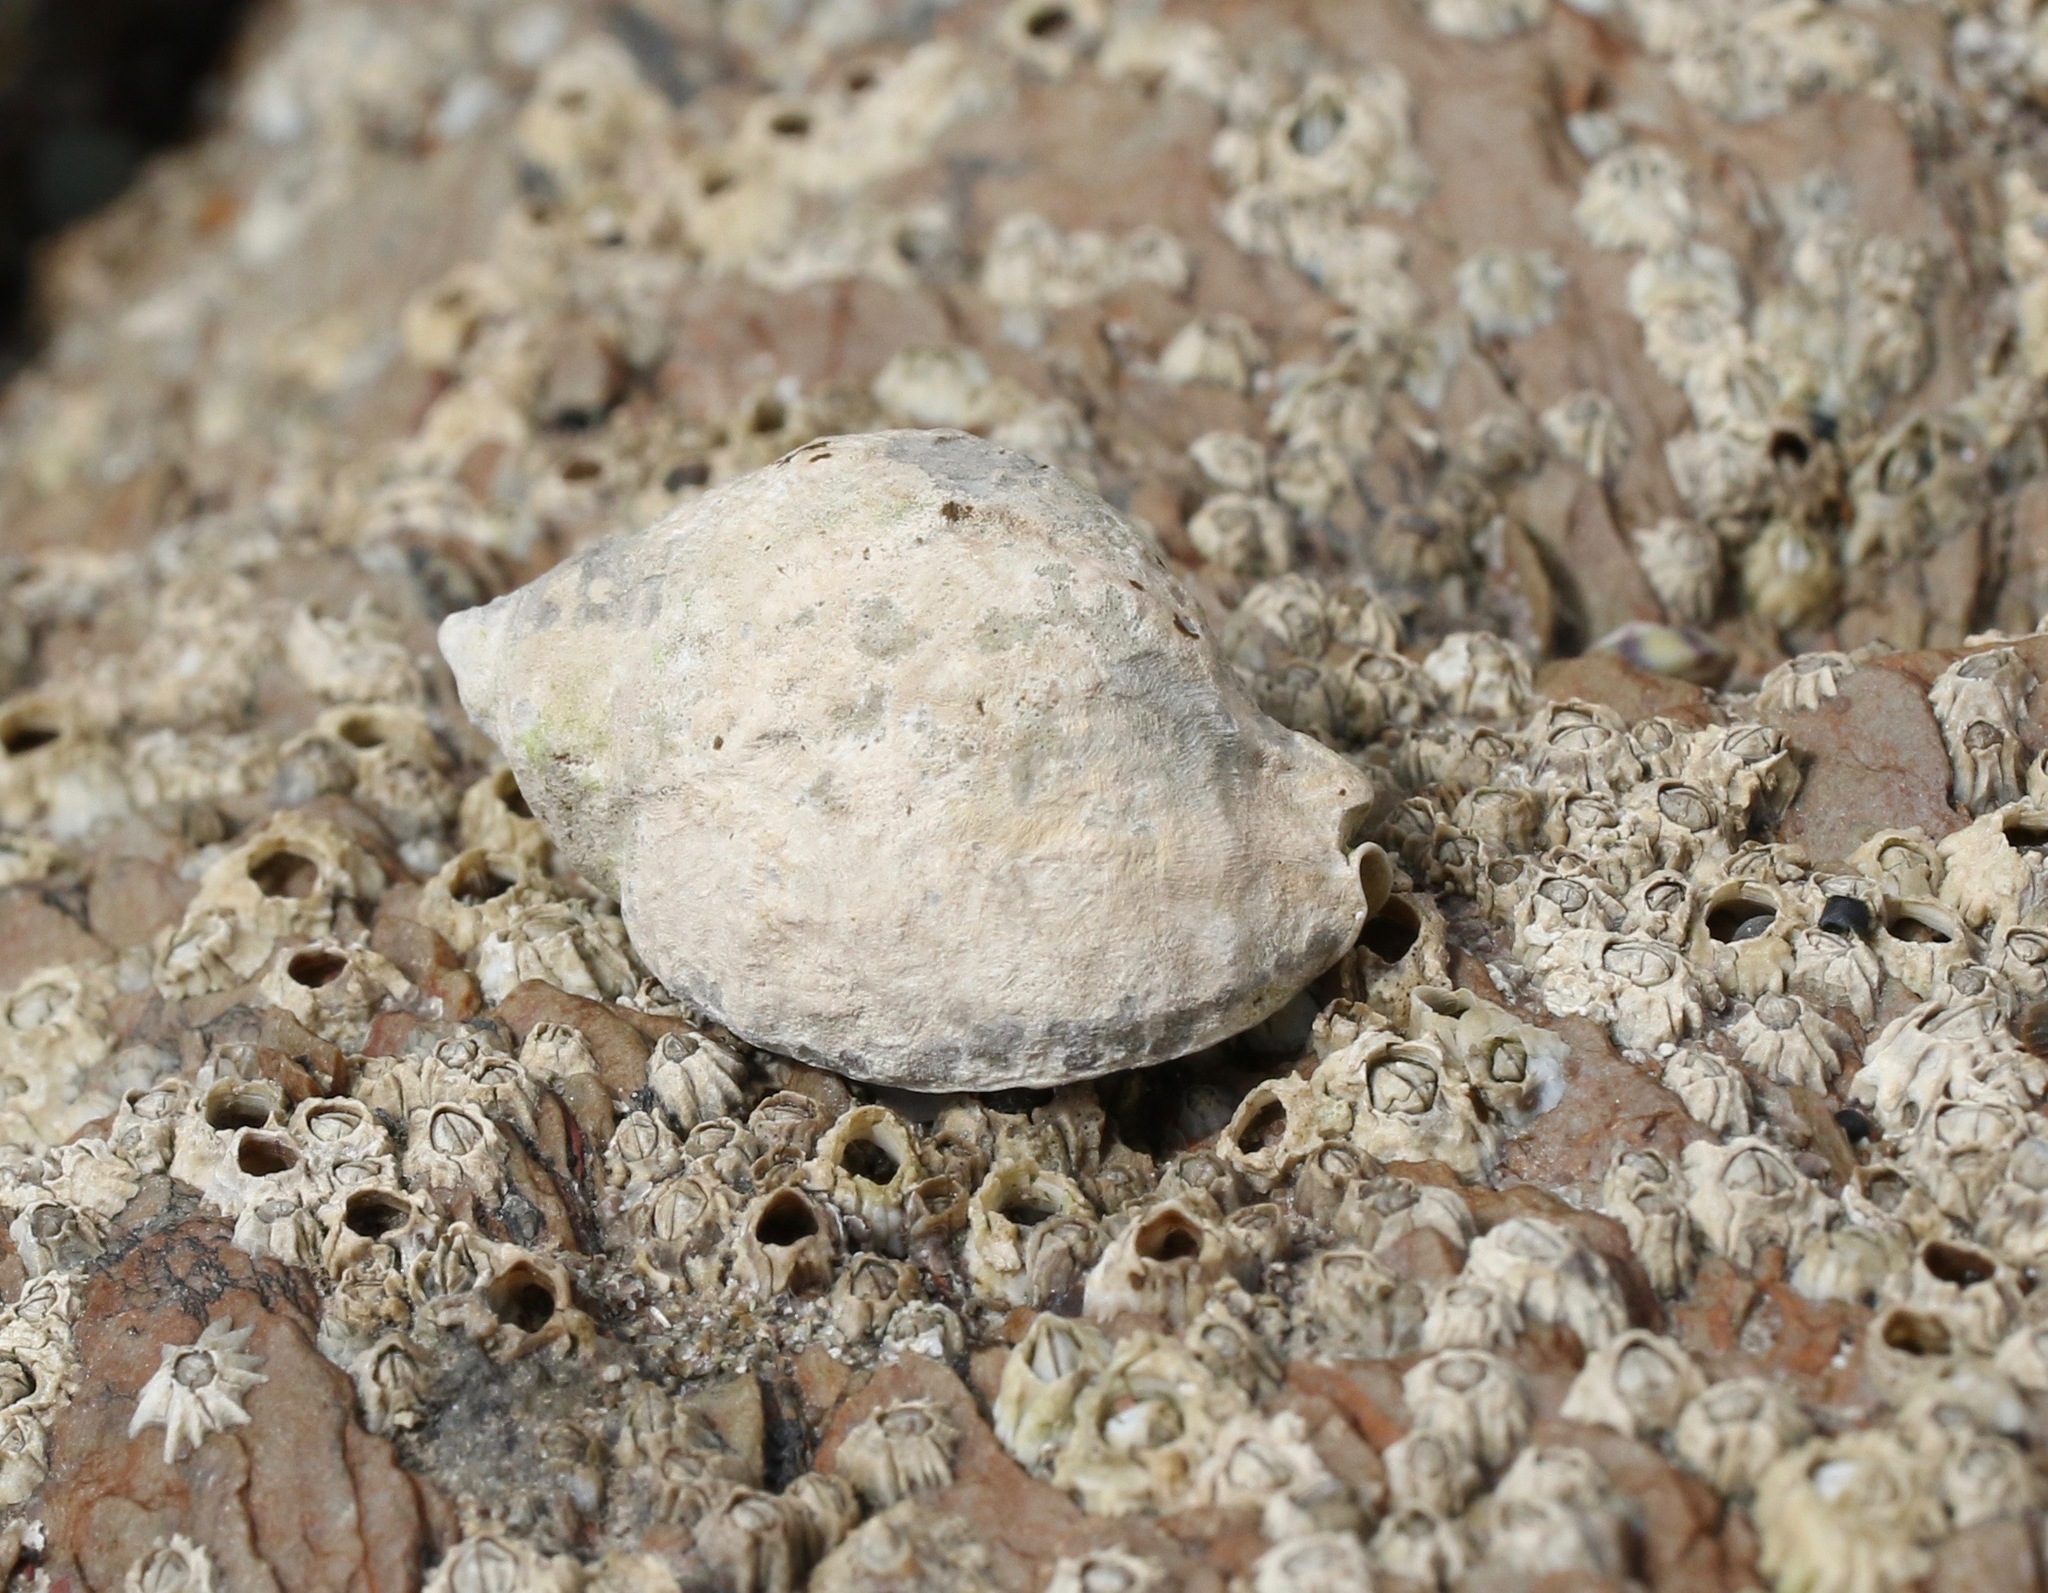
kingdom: Animalia
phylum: Mollusca
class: Gastropoda
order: Neogastropoda
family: Muricidae
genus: Nucella
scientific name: Nucella lapillus
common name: Dog whelk
